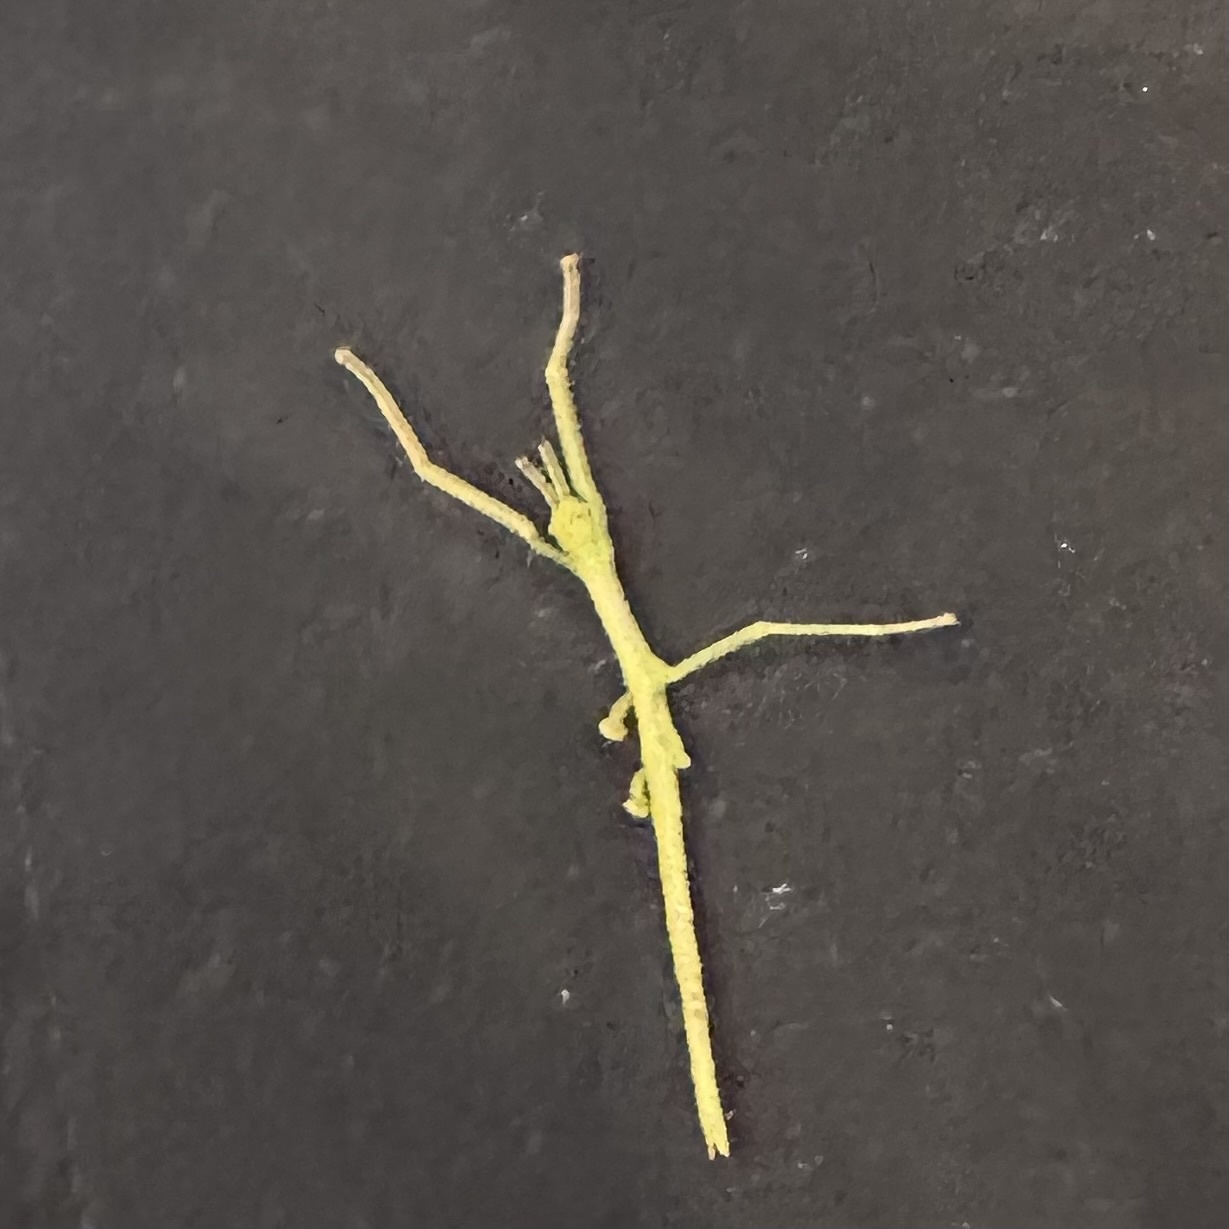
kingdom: Animalia
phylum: Arthropoda
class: Insecta
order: Phasmida
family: Phasmatidae
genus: Anchiale
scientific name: Anchiale briareus
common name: Strong stick insect
